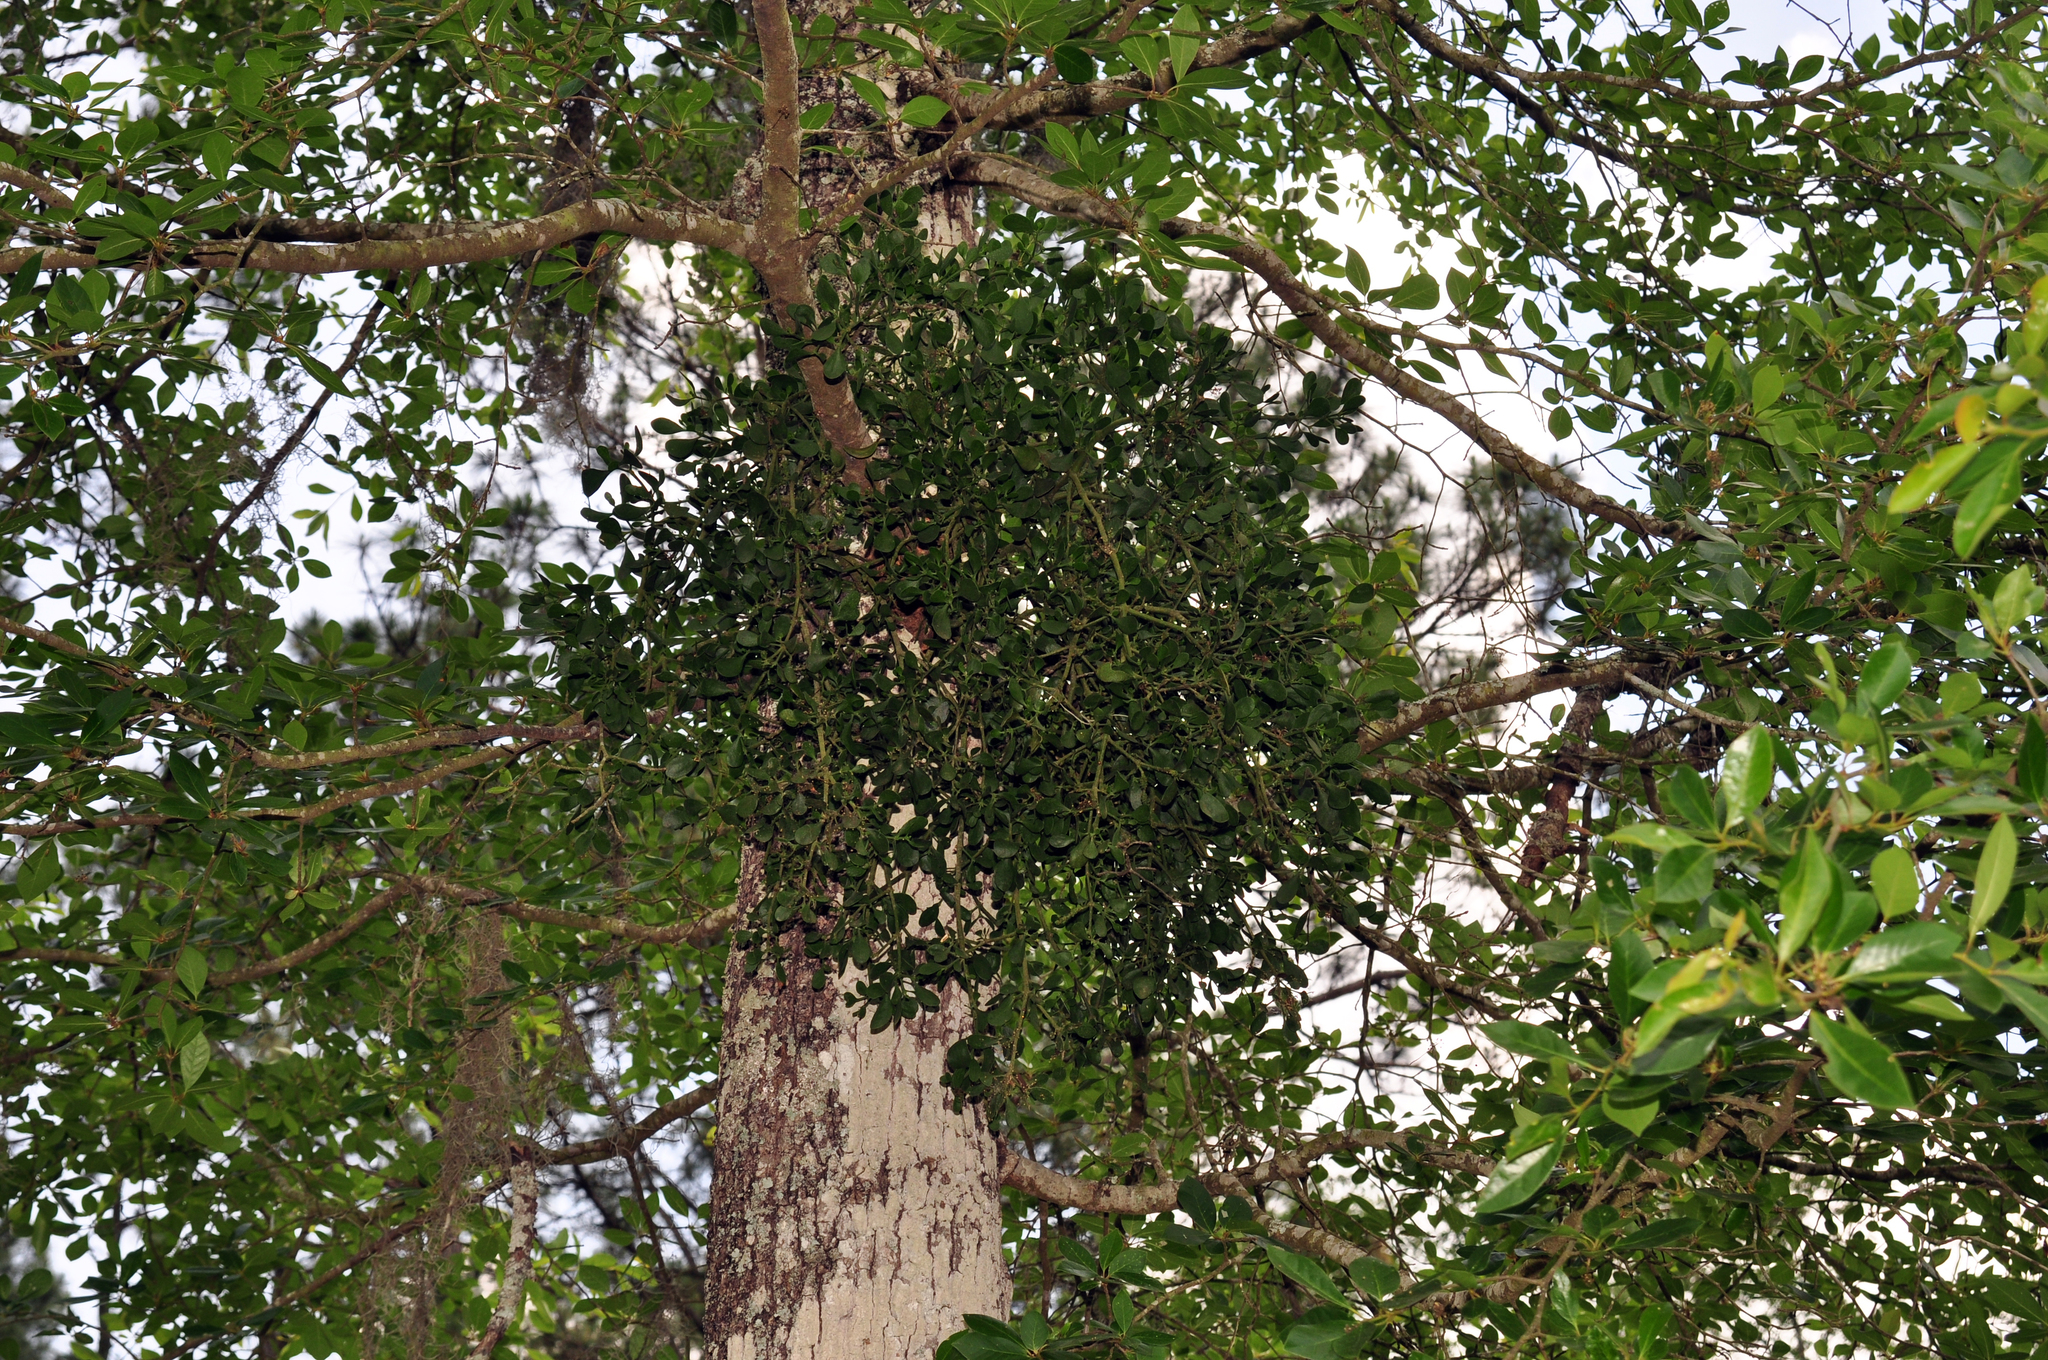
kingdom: Plantae
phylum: Tracheophyta
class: Magnoliopsida
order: Santalales
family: Viscaceae
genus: Phoradendron
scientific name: Phoradendron leucarpum
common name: Pacific mistletoe
